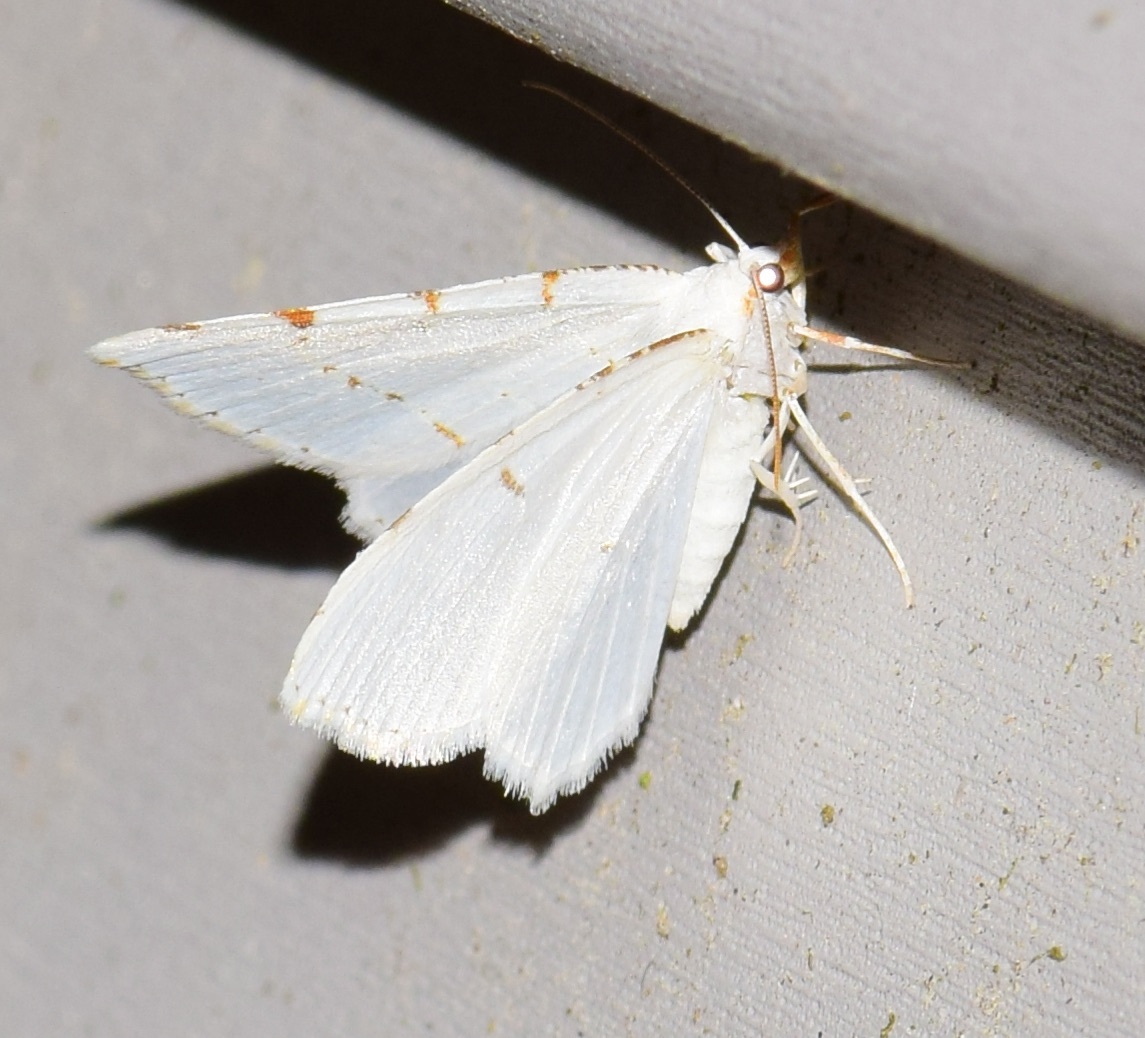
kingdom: Animalia
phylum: Arthropoda
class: Insecta
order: Lepidoptera
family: Geometridae
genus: Macaria
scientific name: Macaria pustularia
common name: Lesser maple spanworm moth
